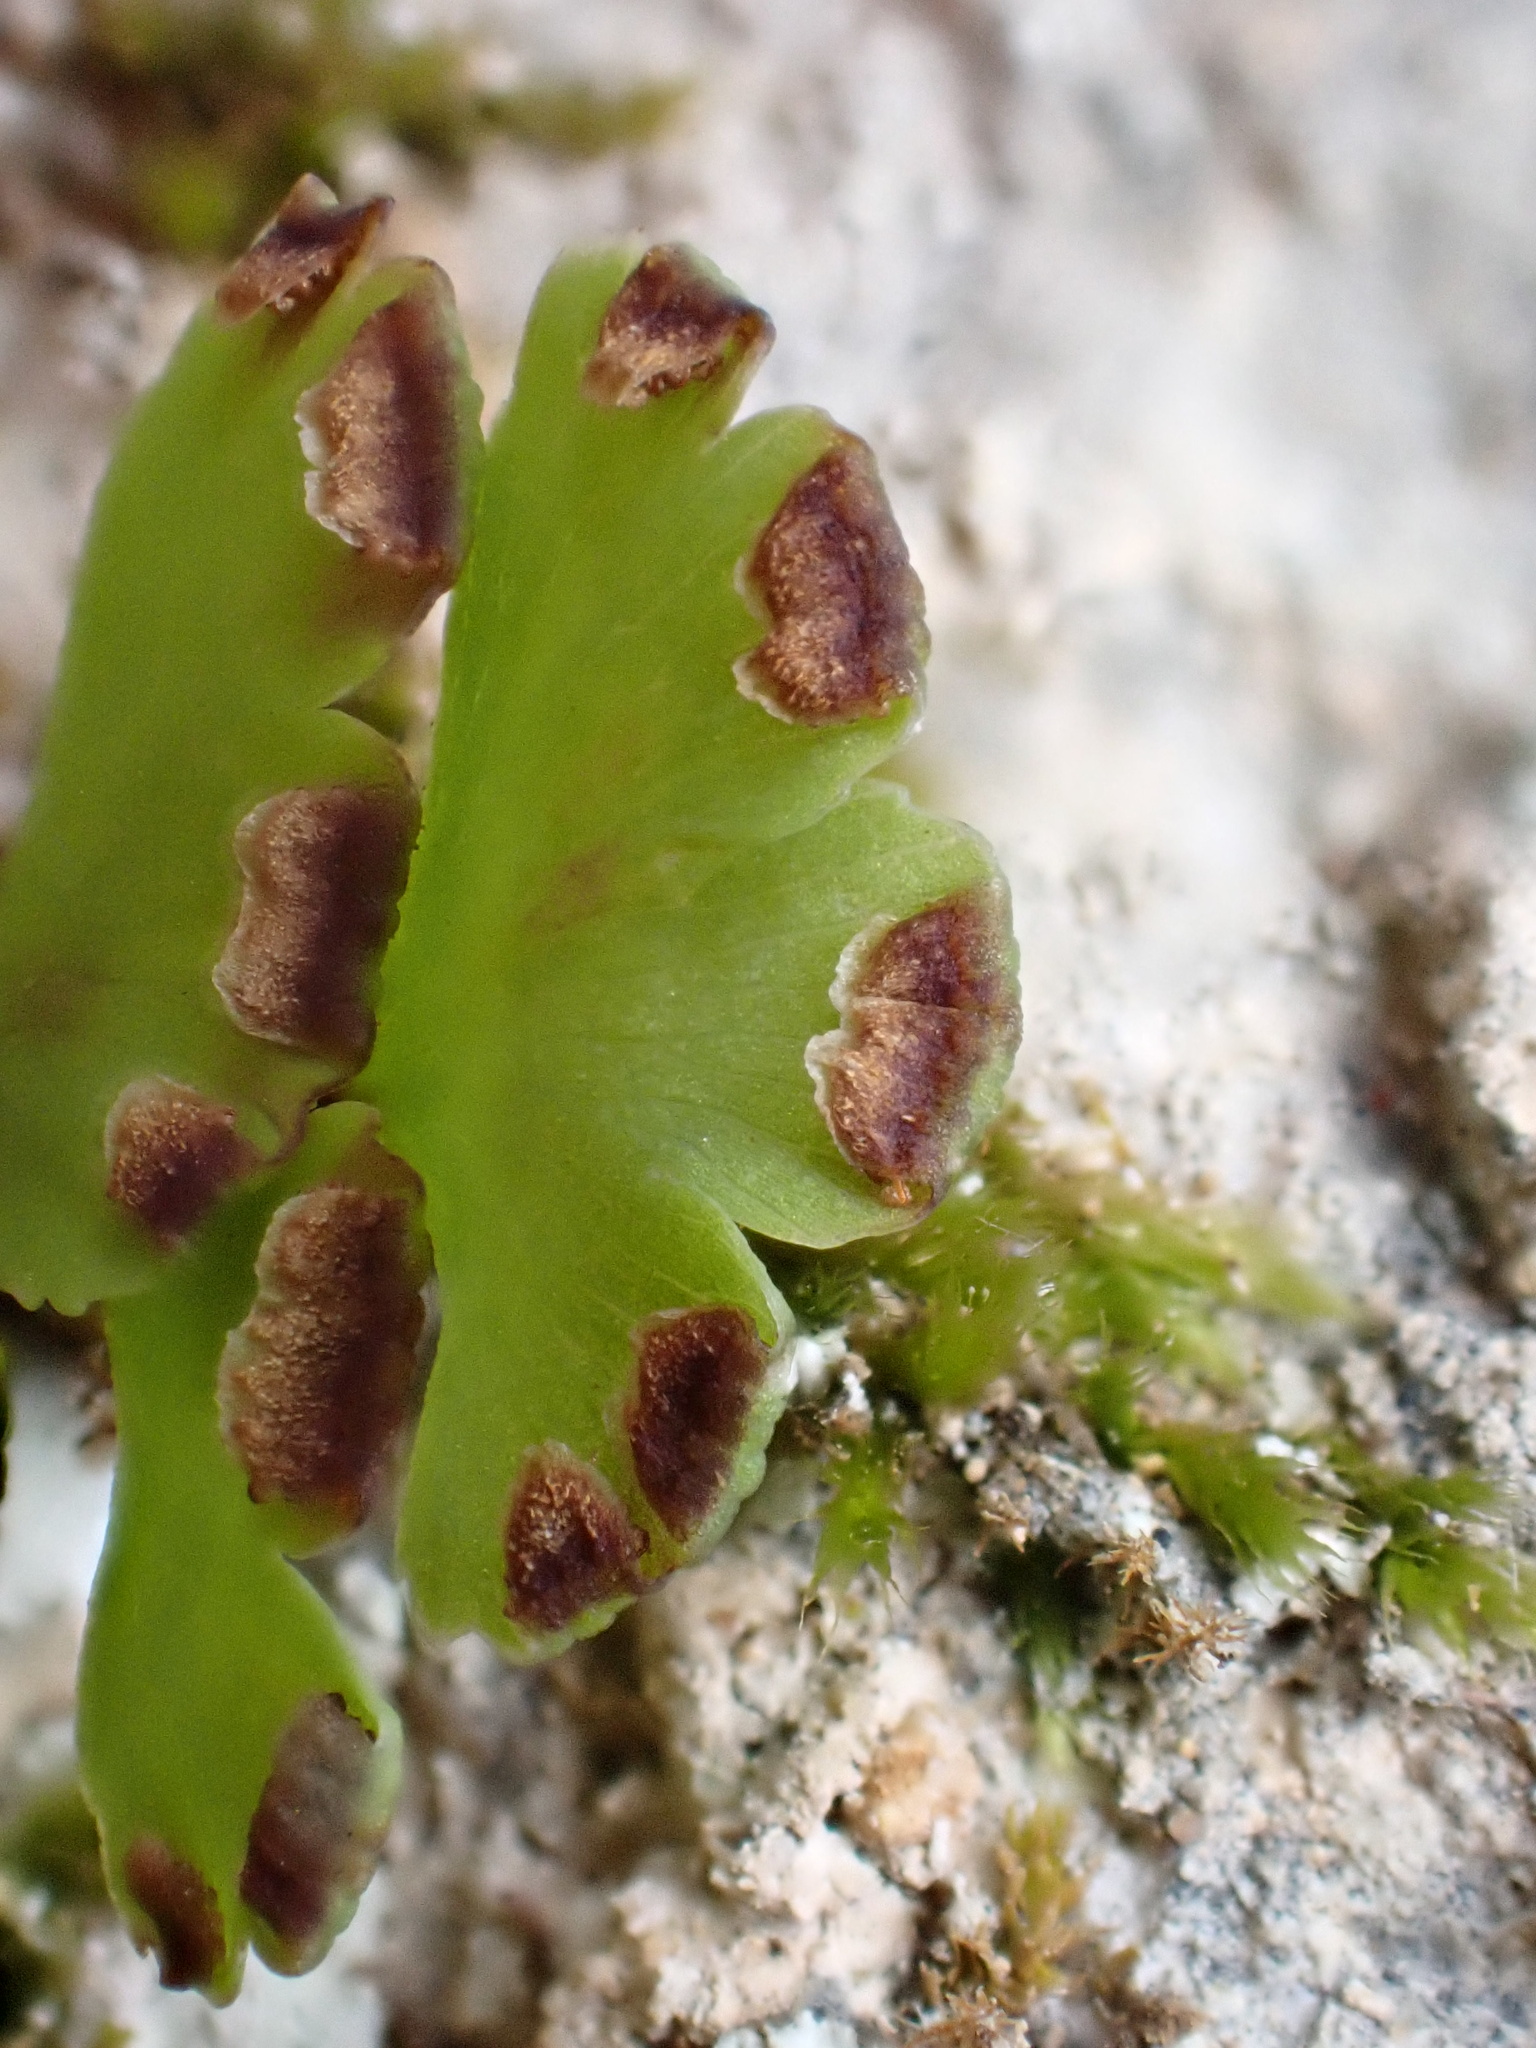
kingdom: Plantae
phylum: Tracheophyta
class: Polypodiopsida
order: Polypodiales
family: Pteridaceae
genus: Adiantum
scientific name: Adiantum capillus-veneris
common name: Maidenhair fern
